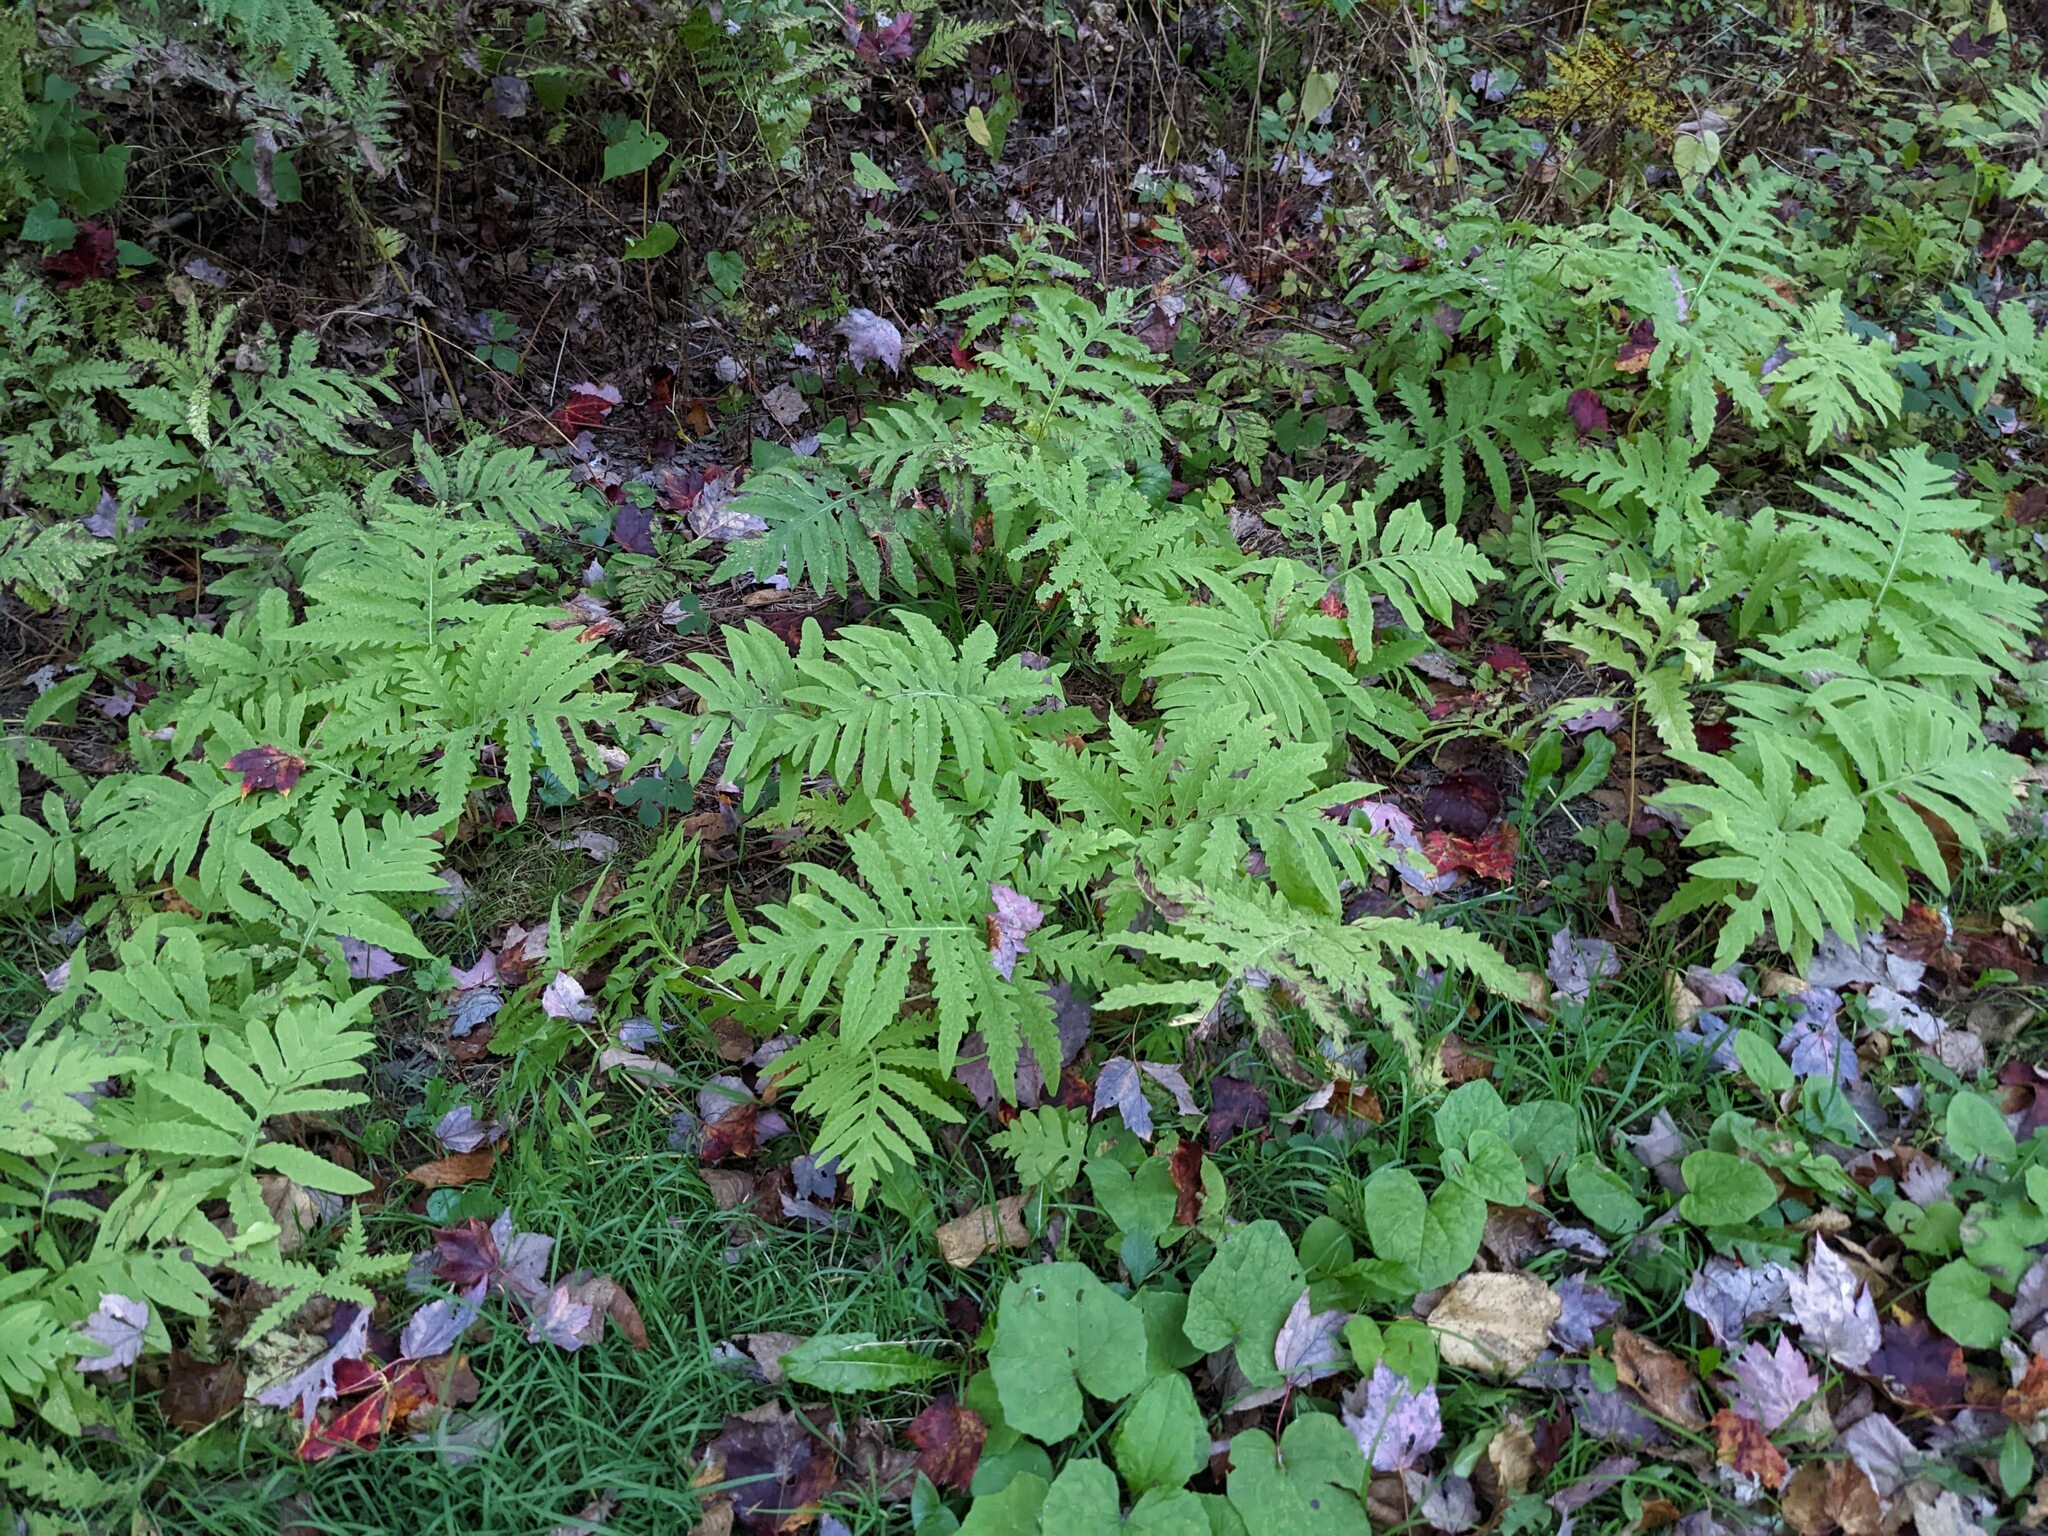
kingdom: Plantae
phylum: Tracheophyta
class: Polypodiopsida
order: Polypodiales
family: Onocleaceae
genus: Onoclea
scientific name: Onoclea sensibilis
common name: Sensitive fern
